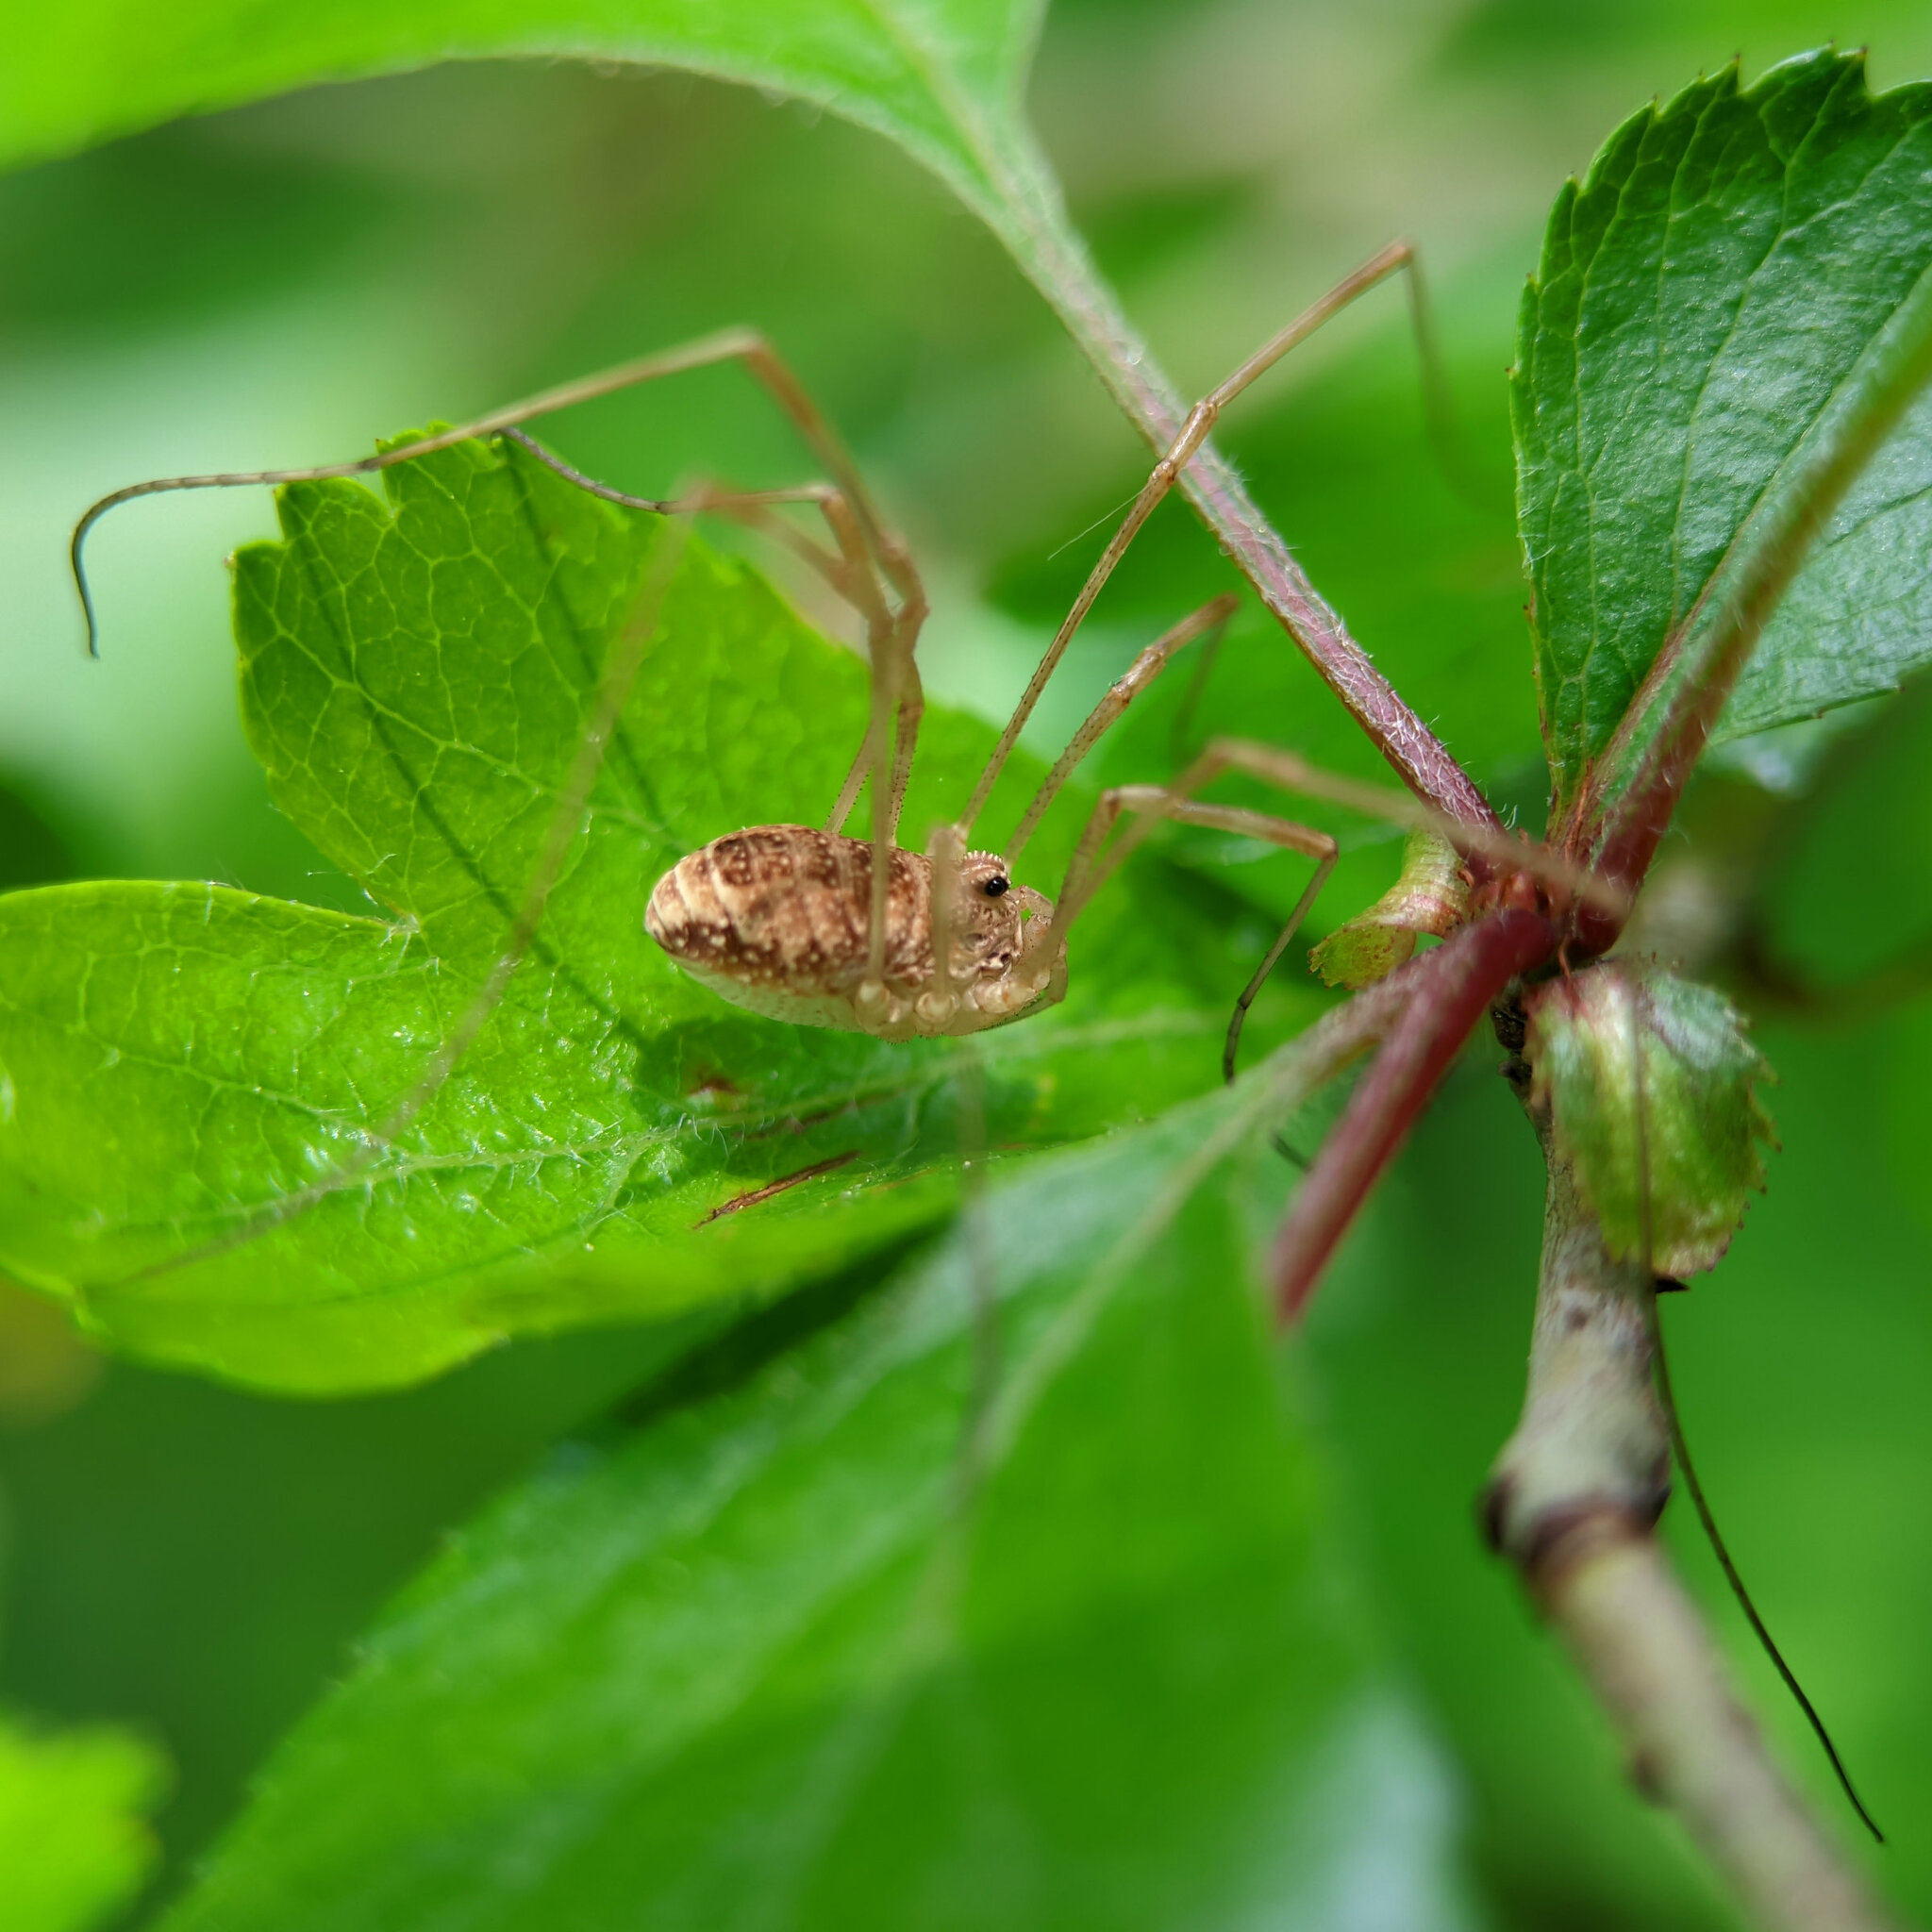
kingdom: Animalia
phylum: Arthropoda
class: Arachnida
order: Opiliones
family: Phalangiidae
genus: Rilaena
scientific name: Rilaena triangularis
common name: Spring harvestman
